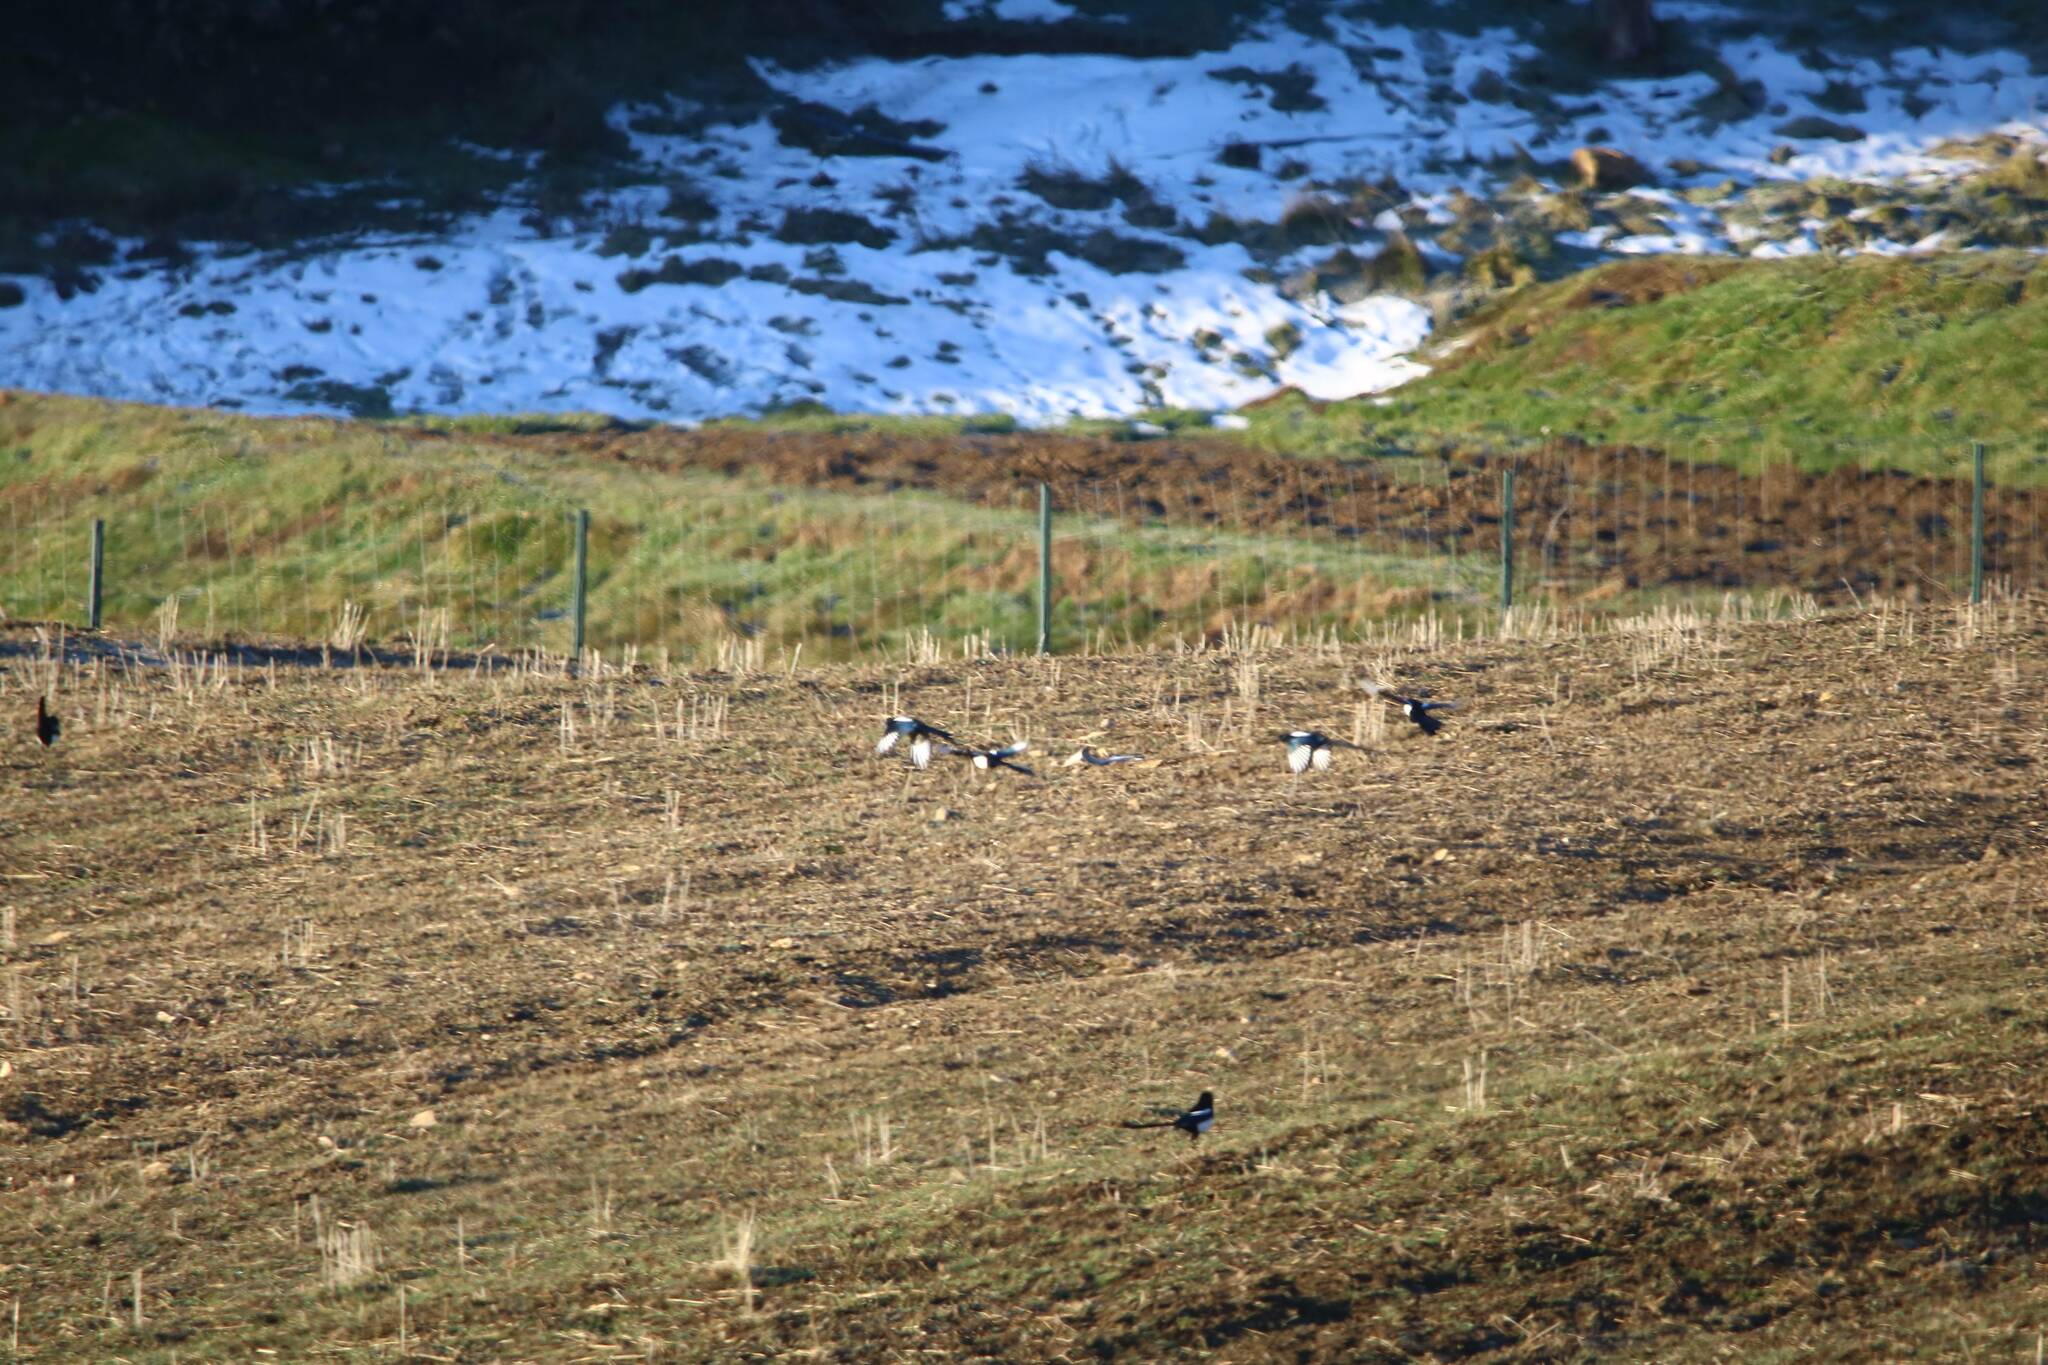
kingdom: Animalia
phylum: Chordata
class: Aves
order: Passeriformes
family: Corvidae
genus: Pica
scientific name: Pica mauritanica
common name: Maghreb magpie
